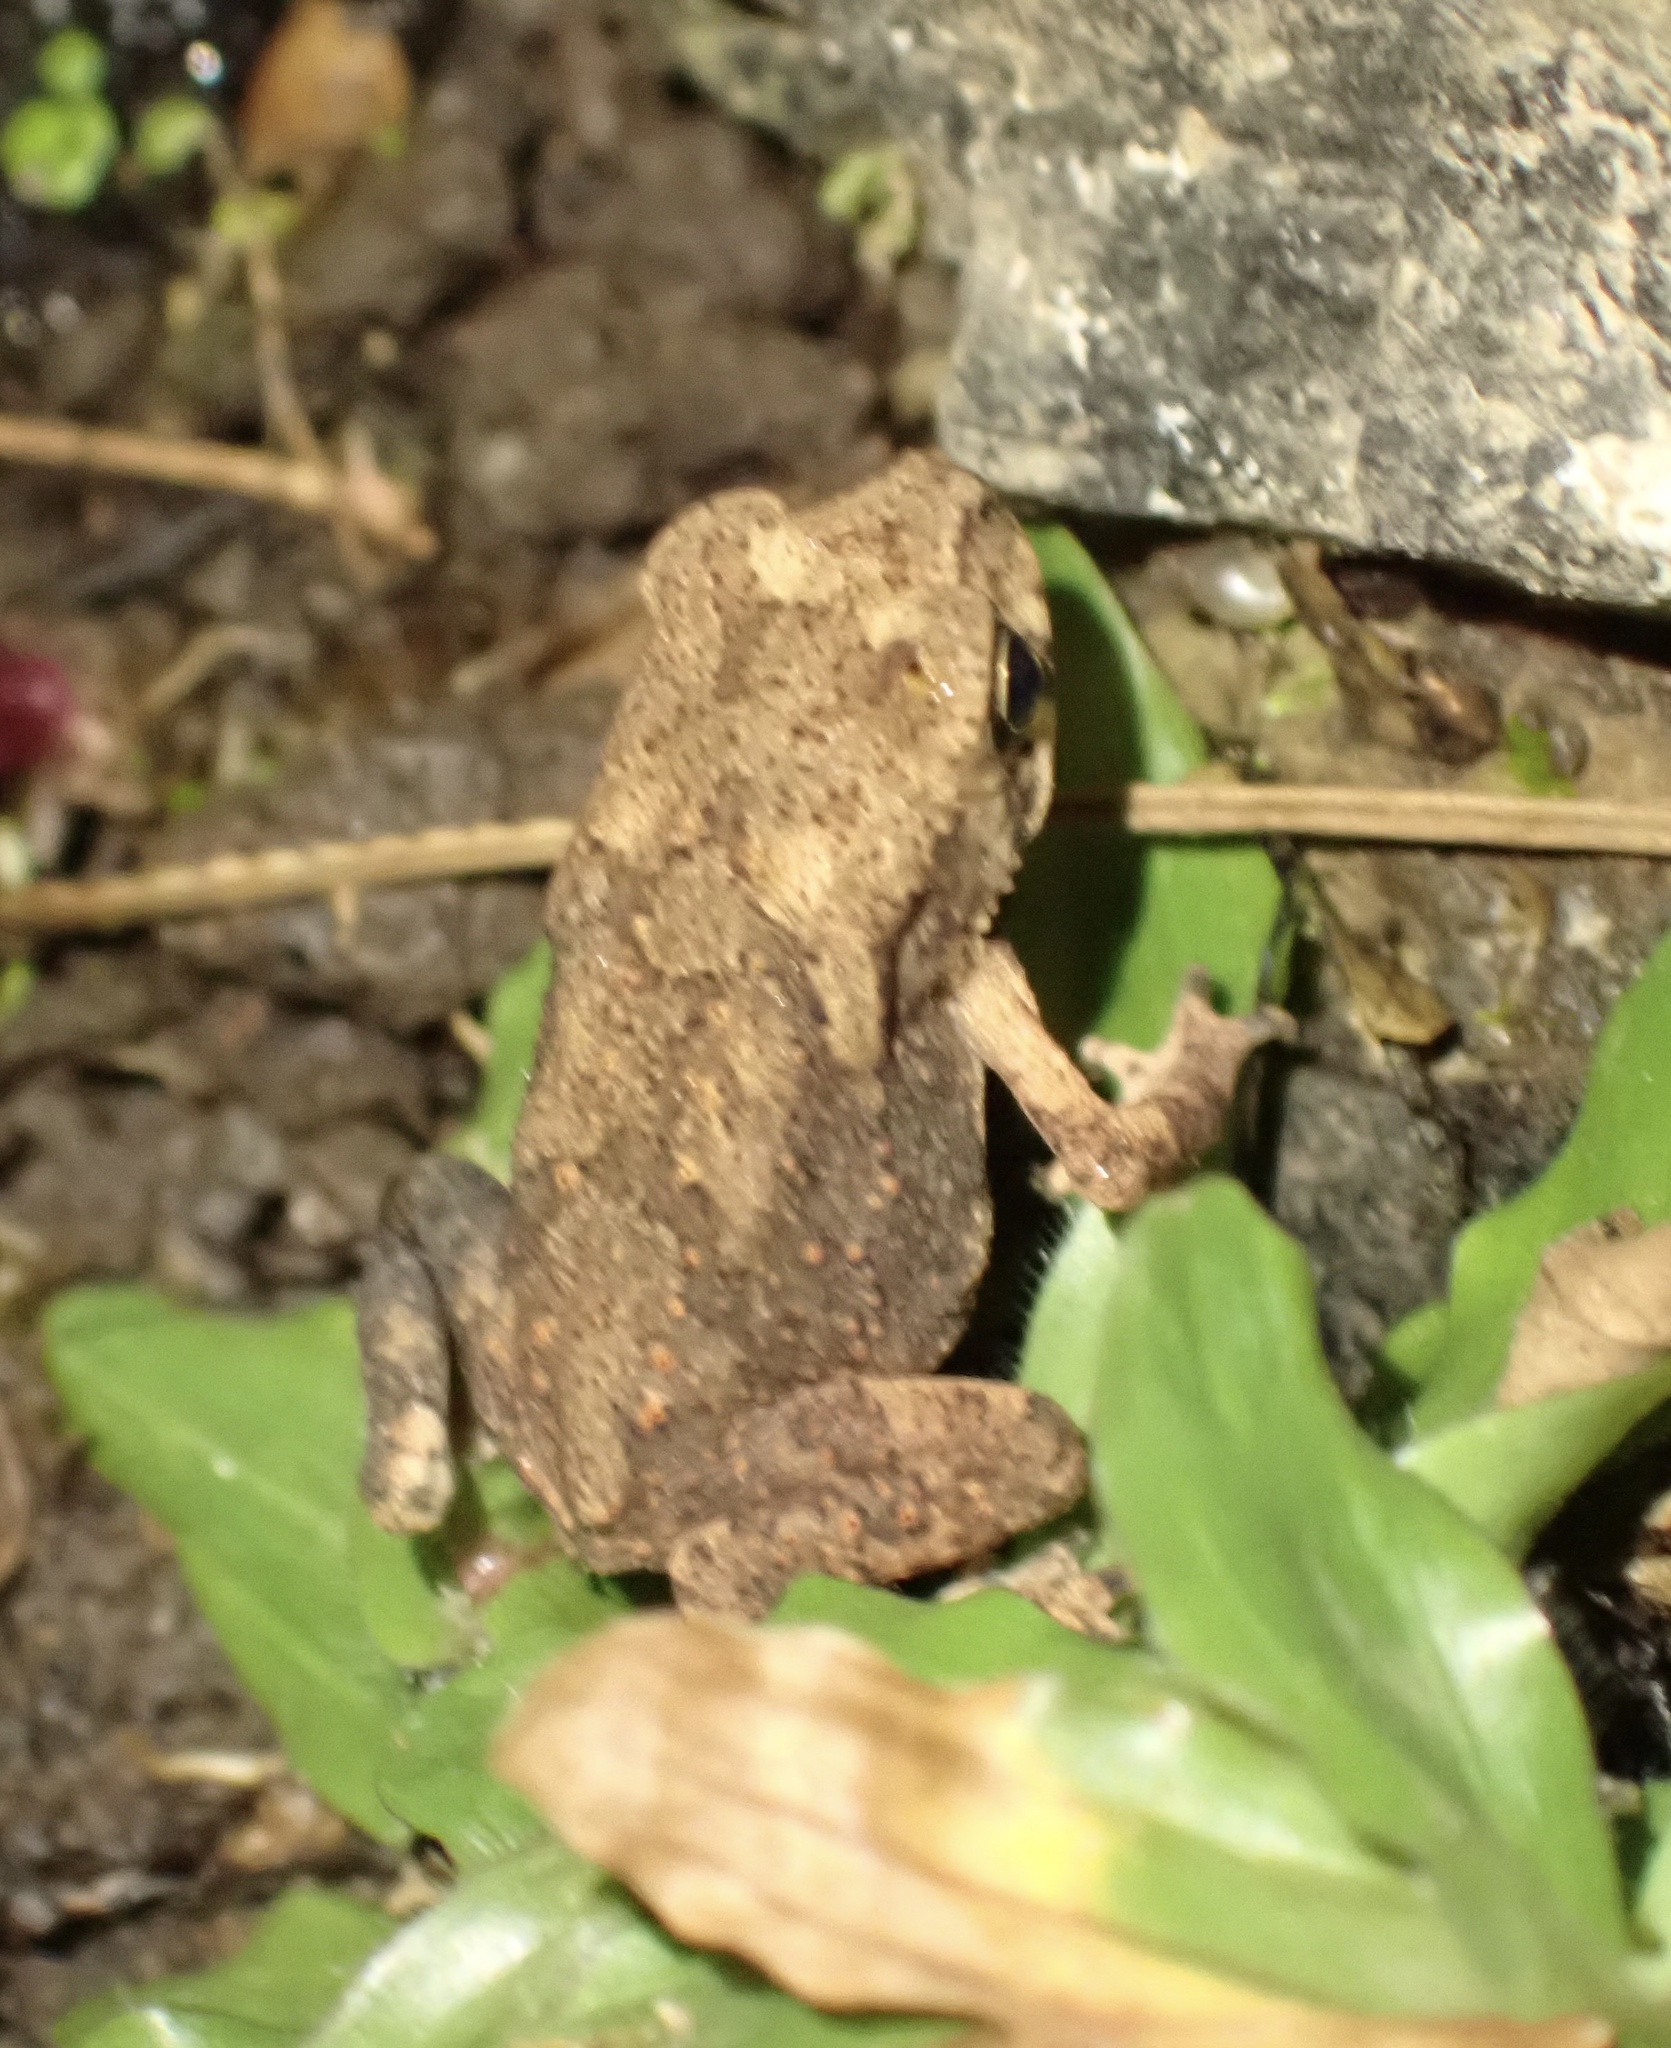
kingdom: Animalia
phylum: Chordata
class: Amphibia
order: Anura
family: Bufonidae
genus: Duttaphrynus
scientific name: Duttaphrynus melanostictus
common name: Common sunda toad
